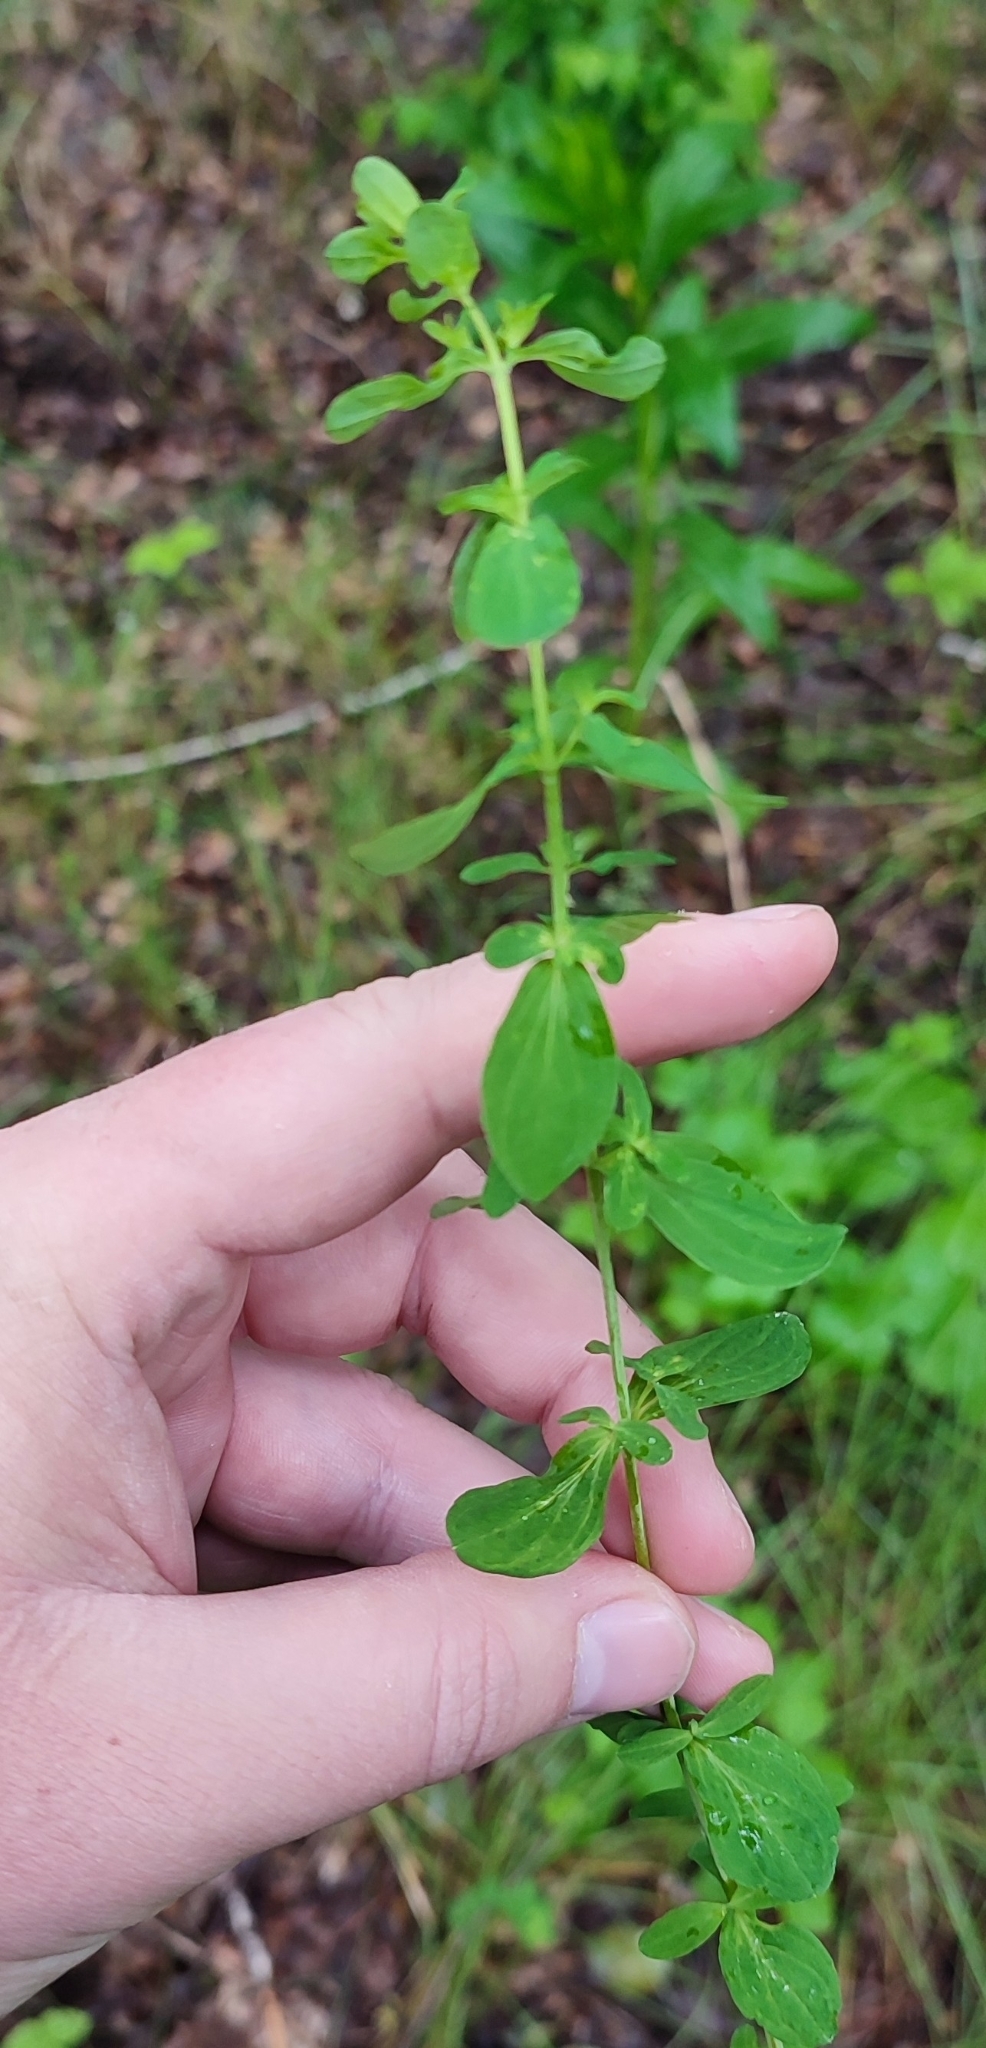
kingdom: Plantae
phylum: Tracheophyta
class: Magnoliopsida
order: Malpighiales
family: Hypericaceae
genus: Hypericum
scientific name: Hypericum perforatum
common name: Common st. johnswort
